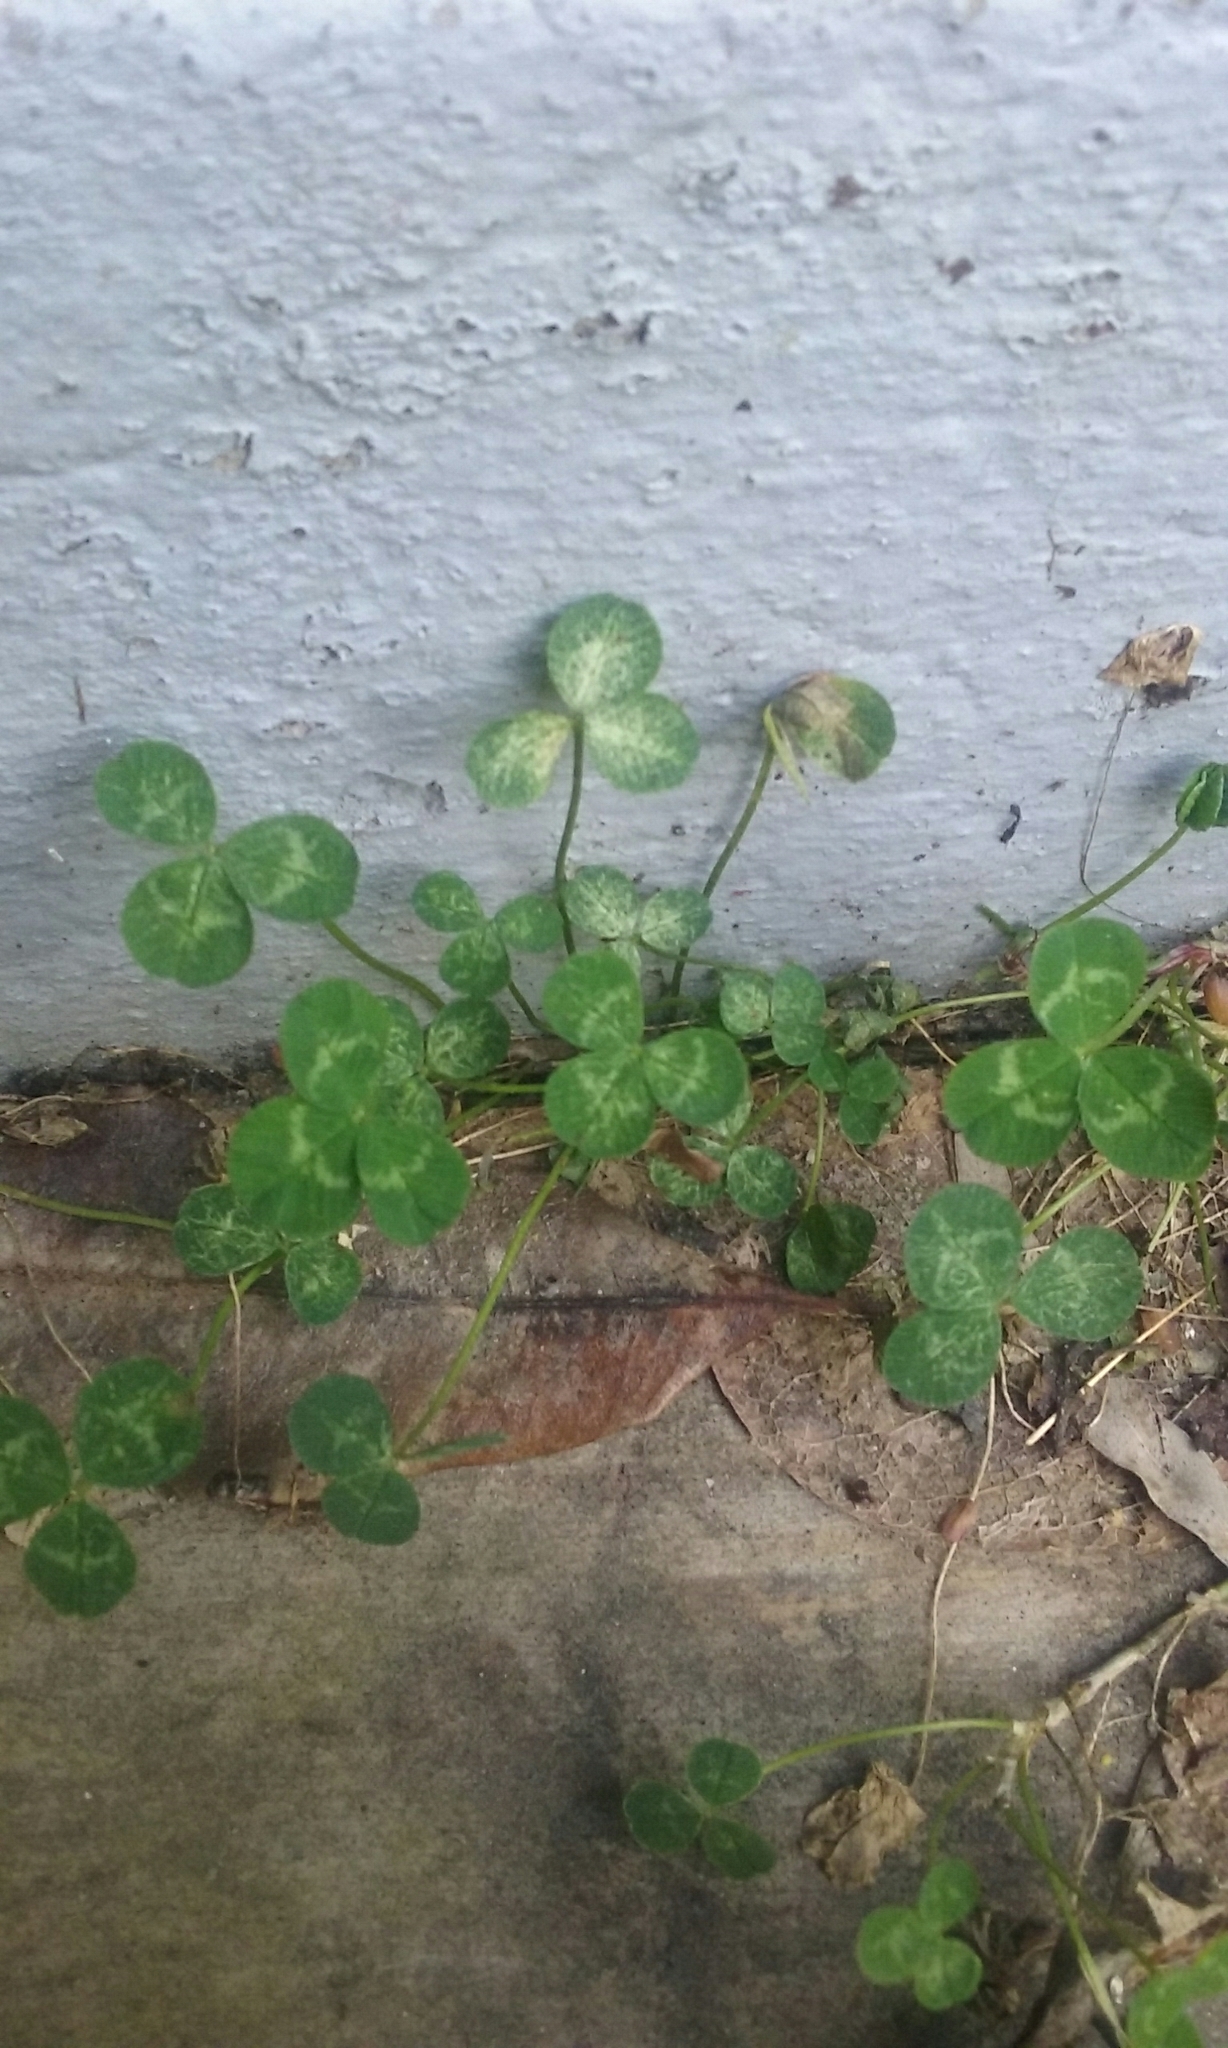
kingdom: Plantae
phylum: Tracheophyta
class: Magnoliopsida
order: Fabales
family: Fabaceae
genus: Trifolium
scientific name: Trifolium repens
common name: White clover
